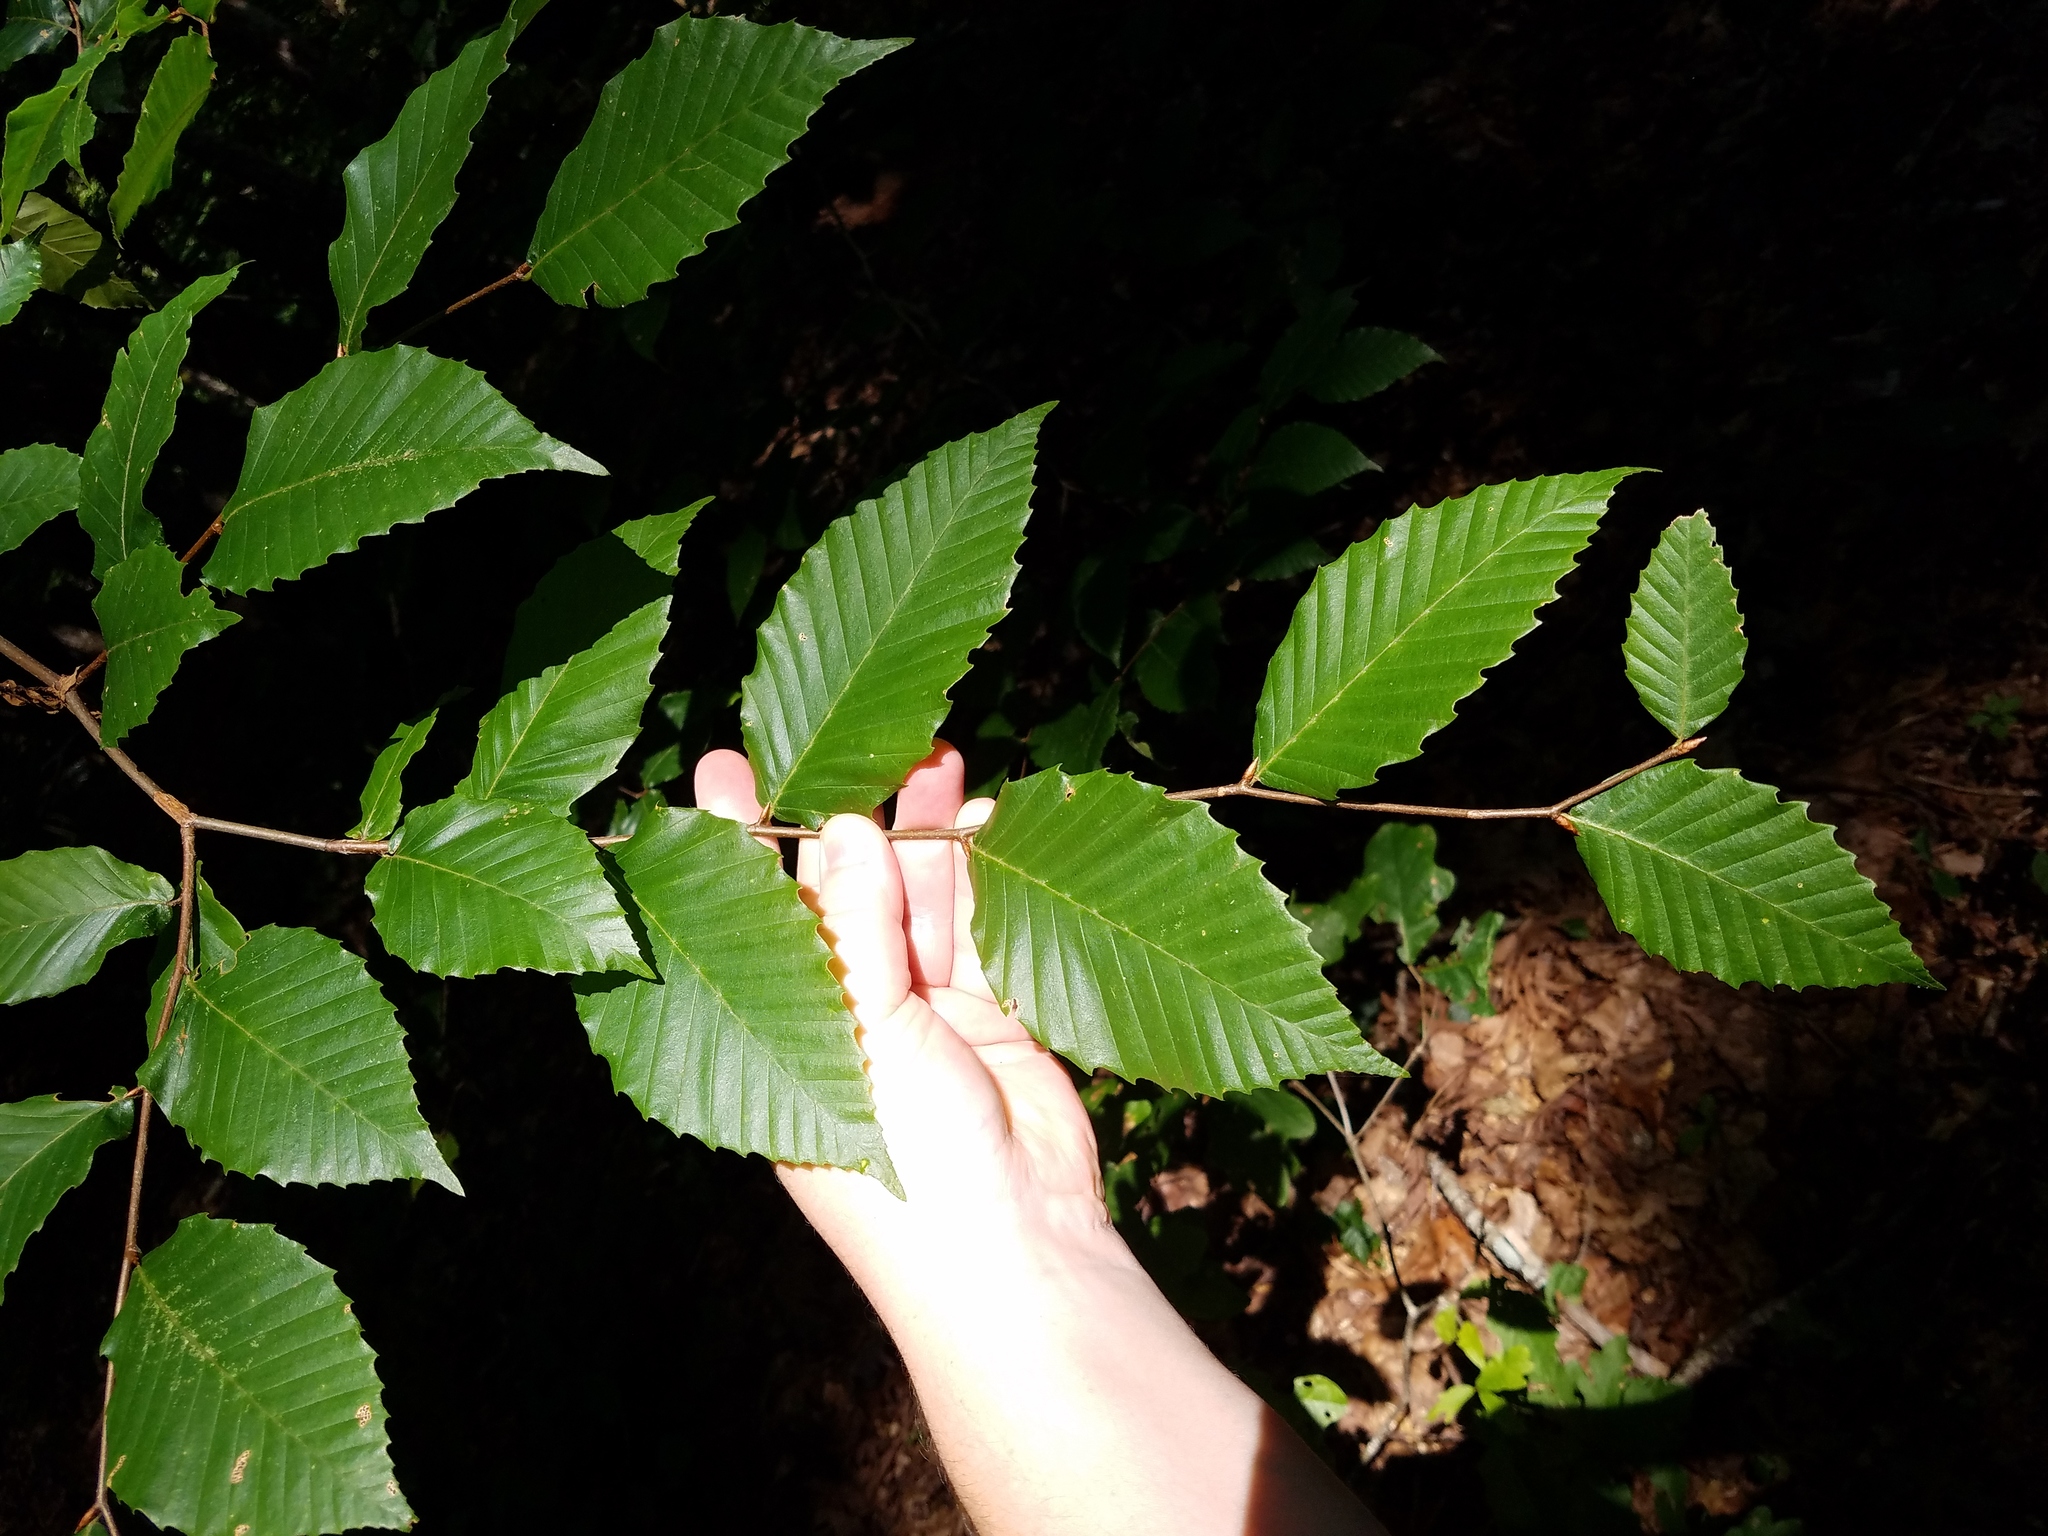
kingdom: Plantae
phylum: Tracheophyta
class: Magnoliopsida
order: Fagales
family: Fagaceae
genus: Fagus
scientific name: Fagus grandifolia
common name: American beech
